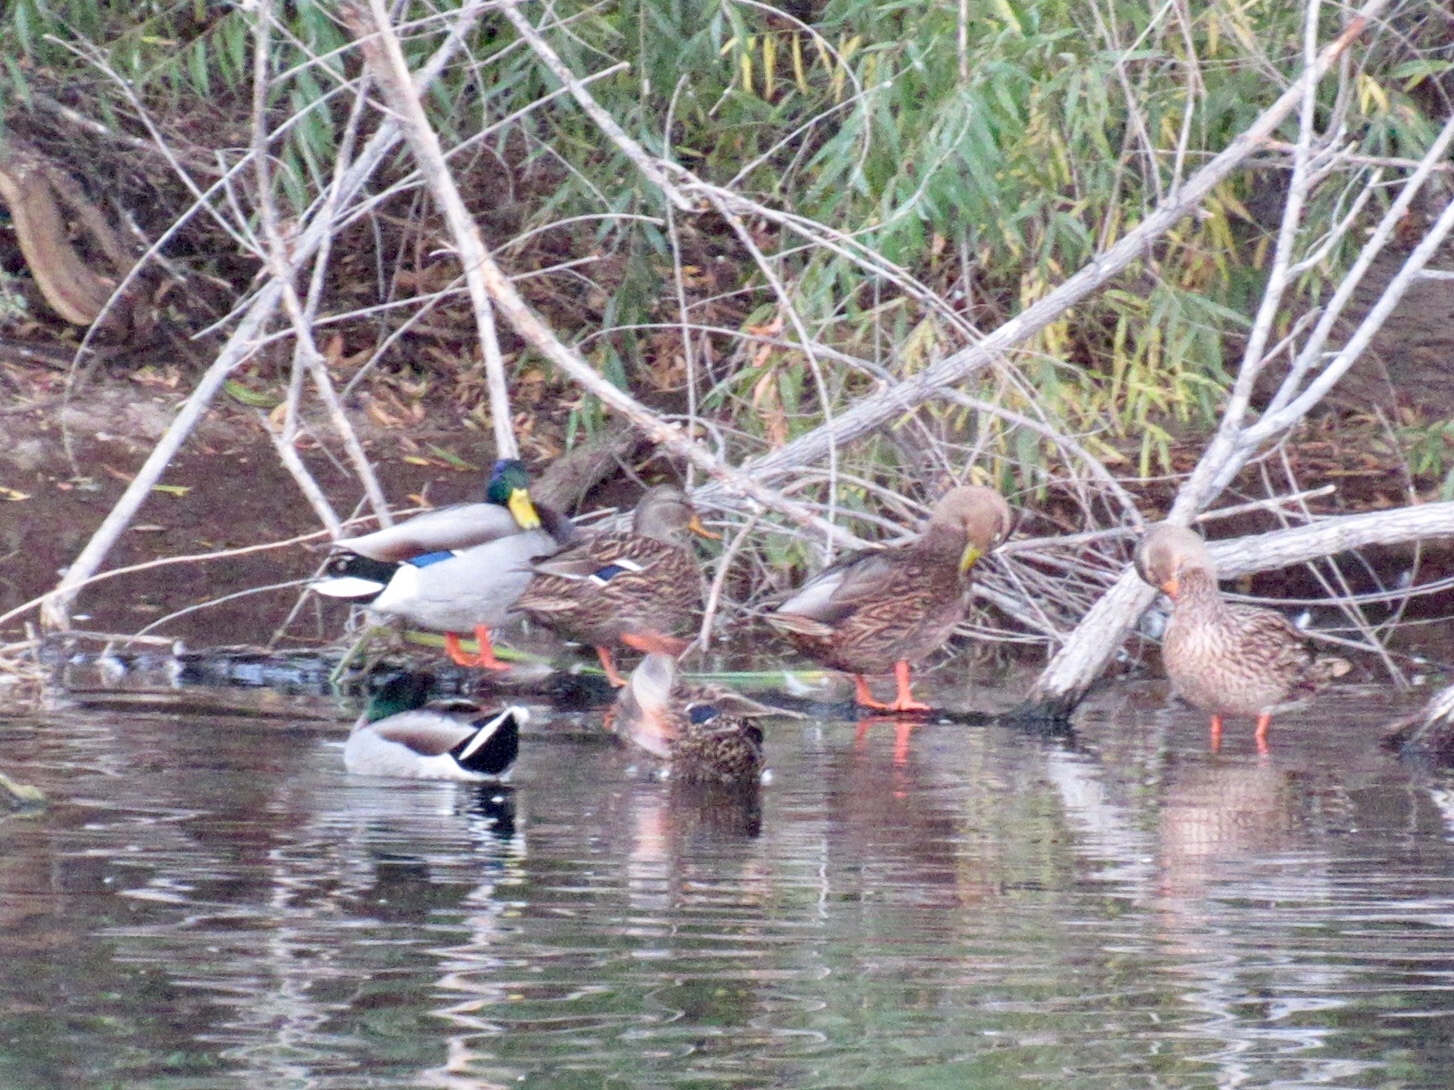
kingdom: Animalia
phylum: Chordata
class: Aves
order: Anseriformes
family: Anatidae
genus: Anas
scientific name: Anas platyrhynchos
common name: Mallard
